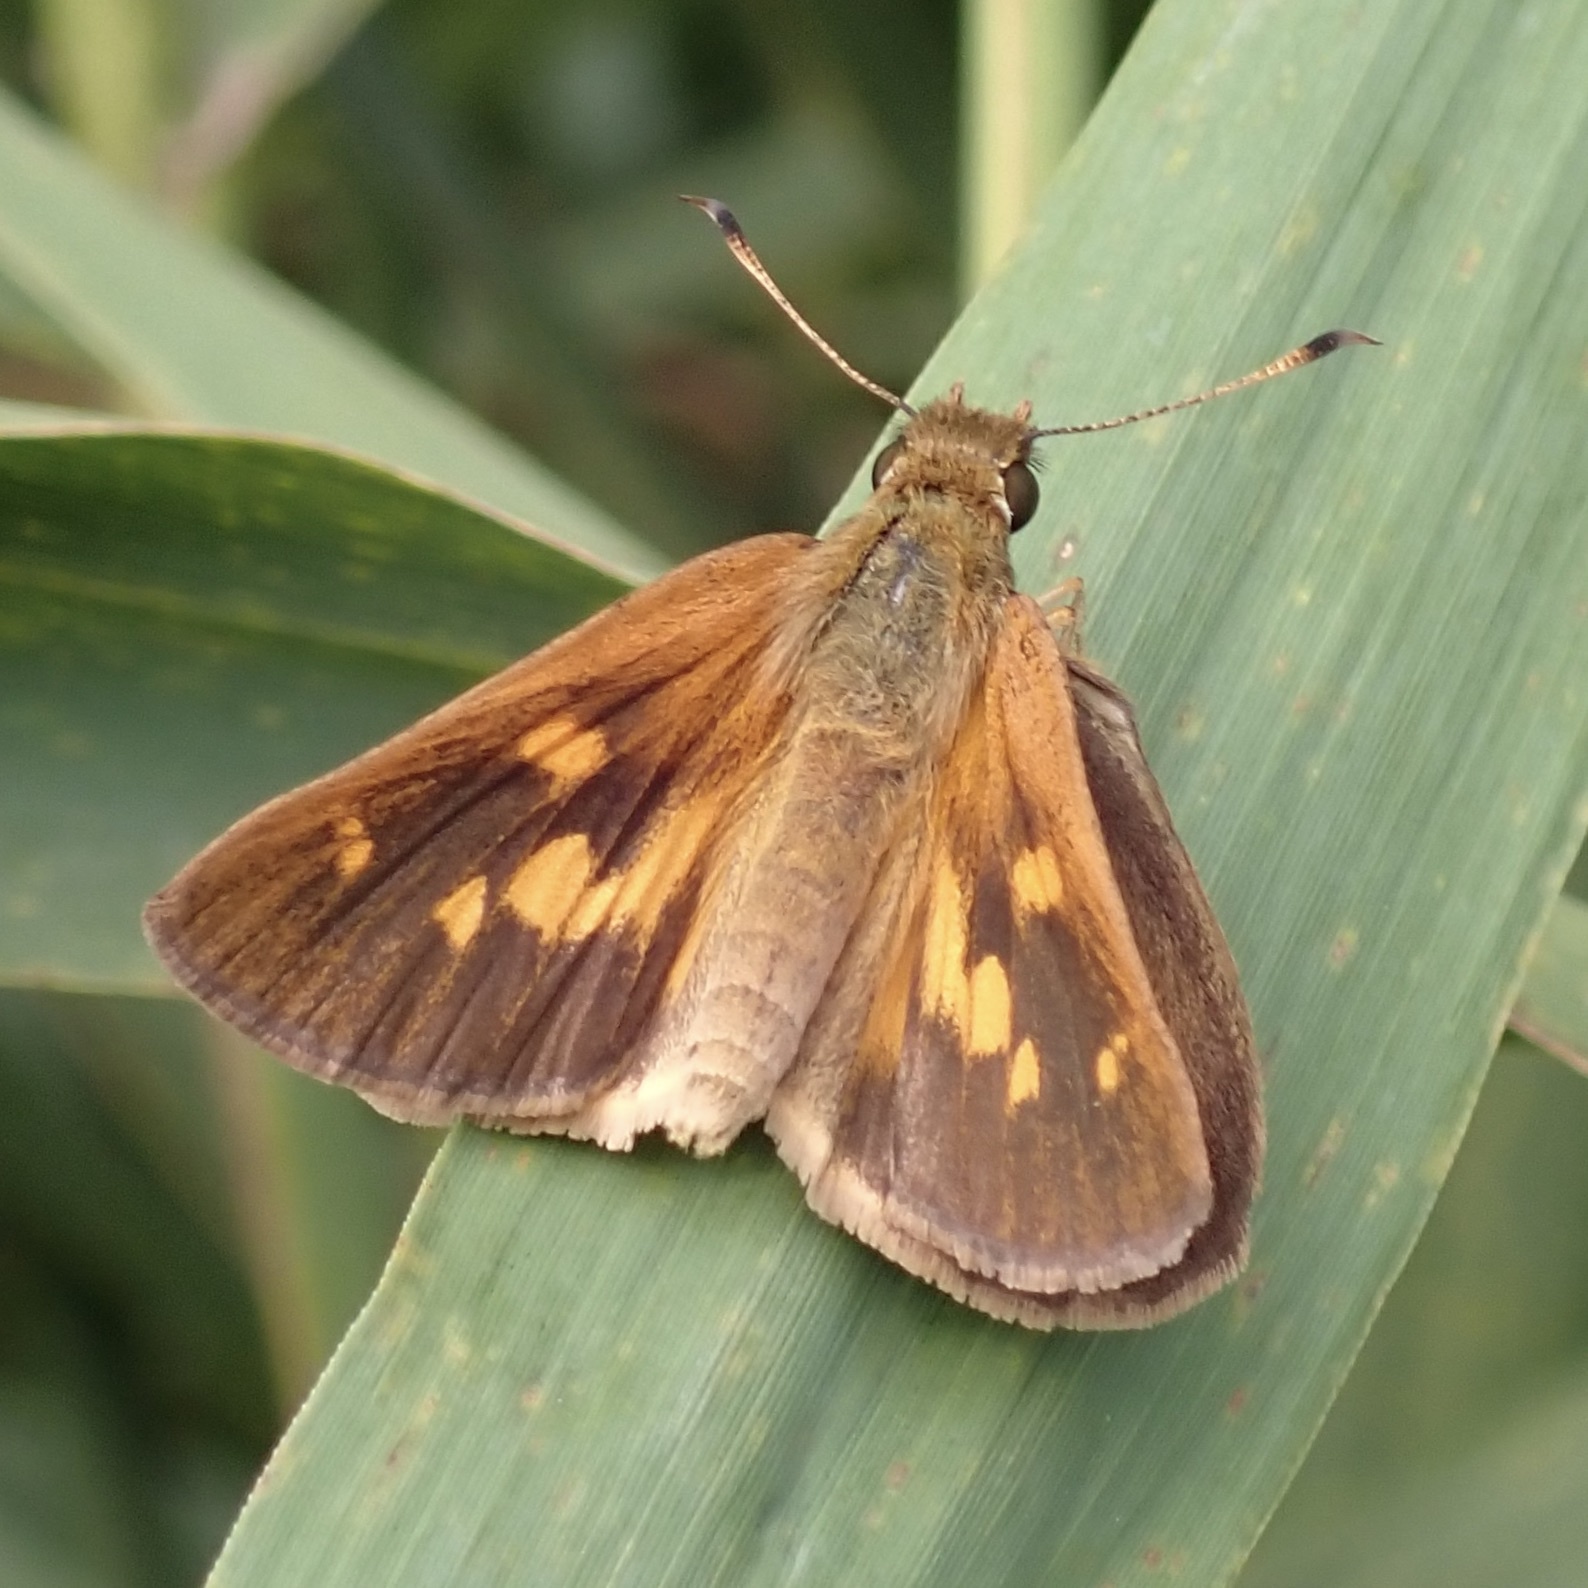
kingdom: Animalia
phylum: Arthropoda
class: Insecta
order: Lepidoptera
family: Hesperiidae
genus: Poanes
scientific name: Poanes viator
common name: Broad-winged skipper
